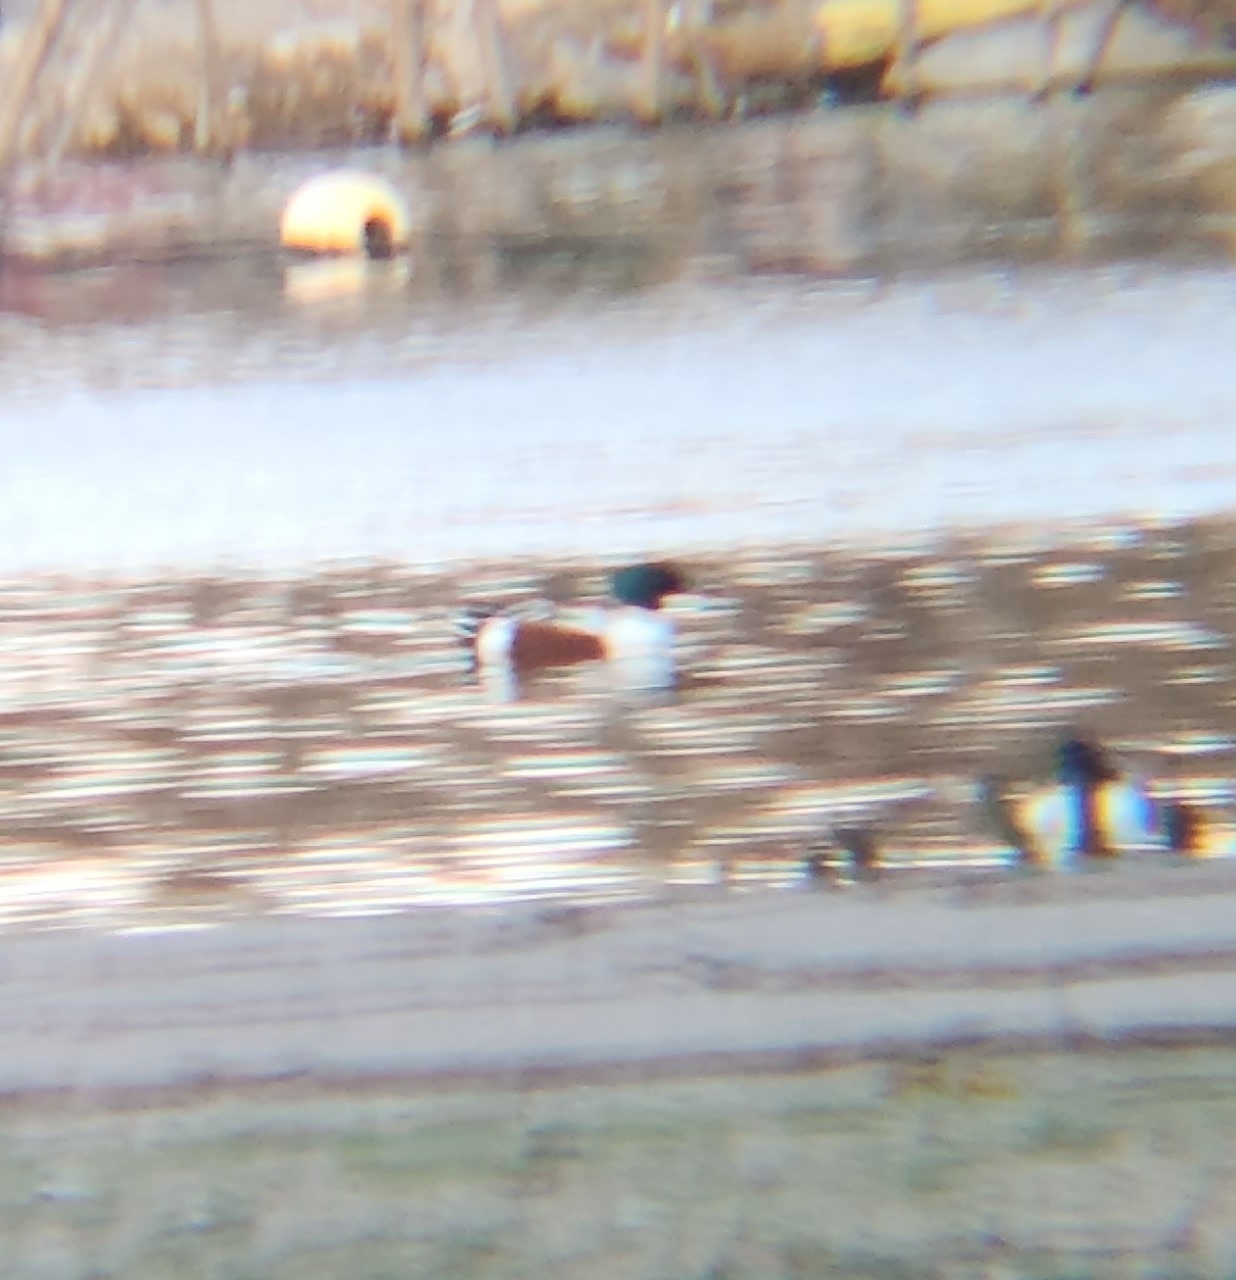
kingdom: Animalia
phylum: Chordata
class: Aves
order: Anseriformes
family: Anatidae
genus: Spatula
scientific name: Spatula clypeata
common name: Northern shoveler
